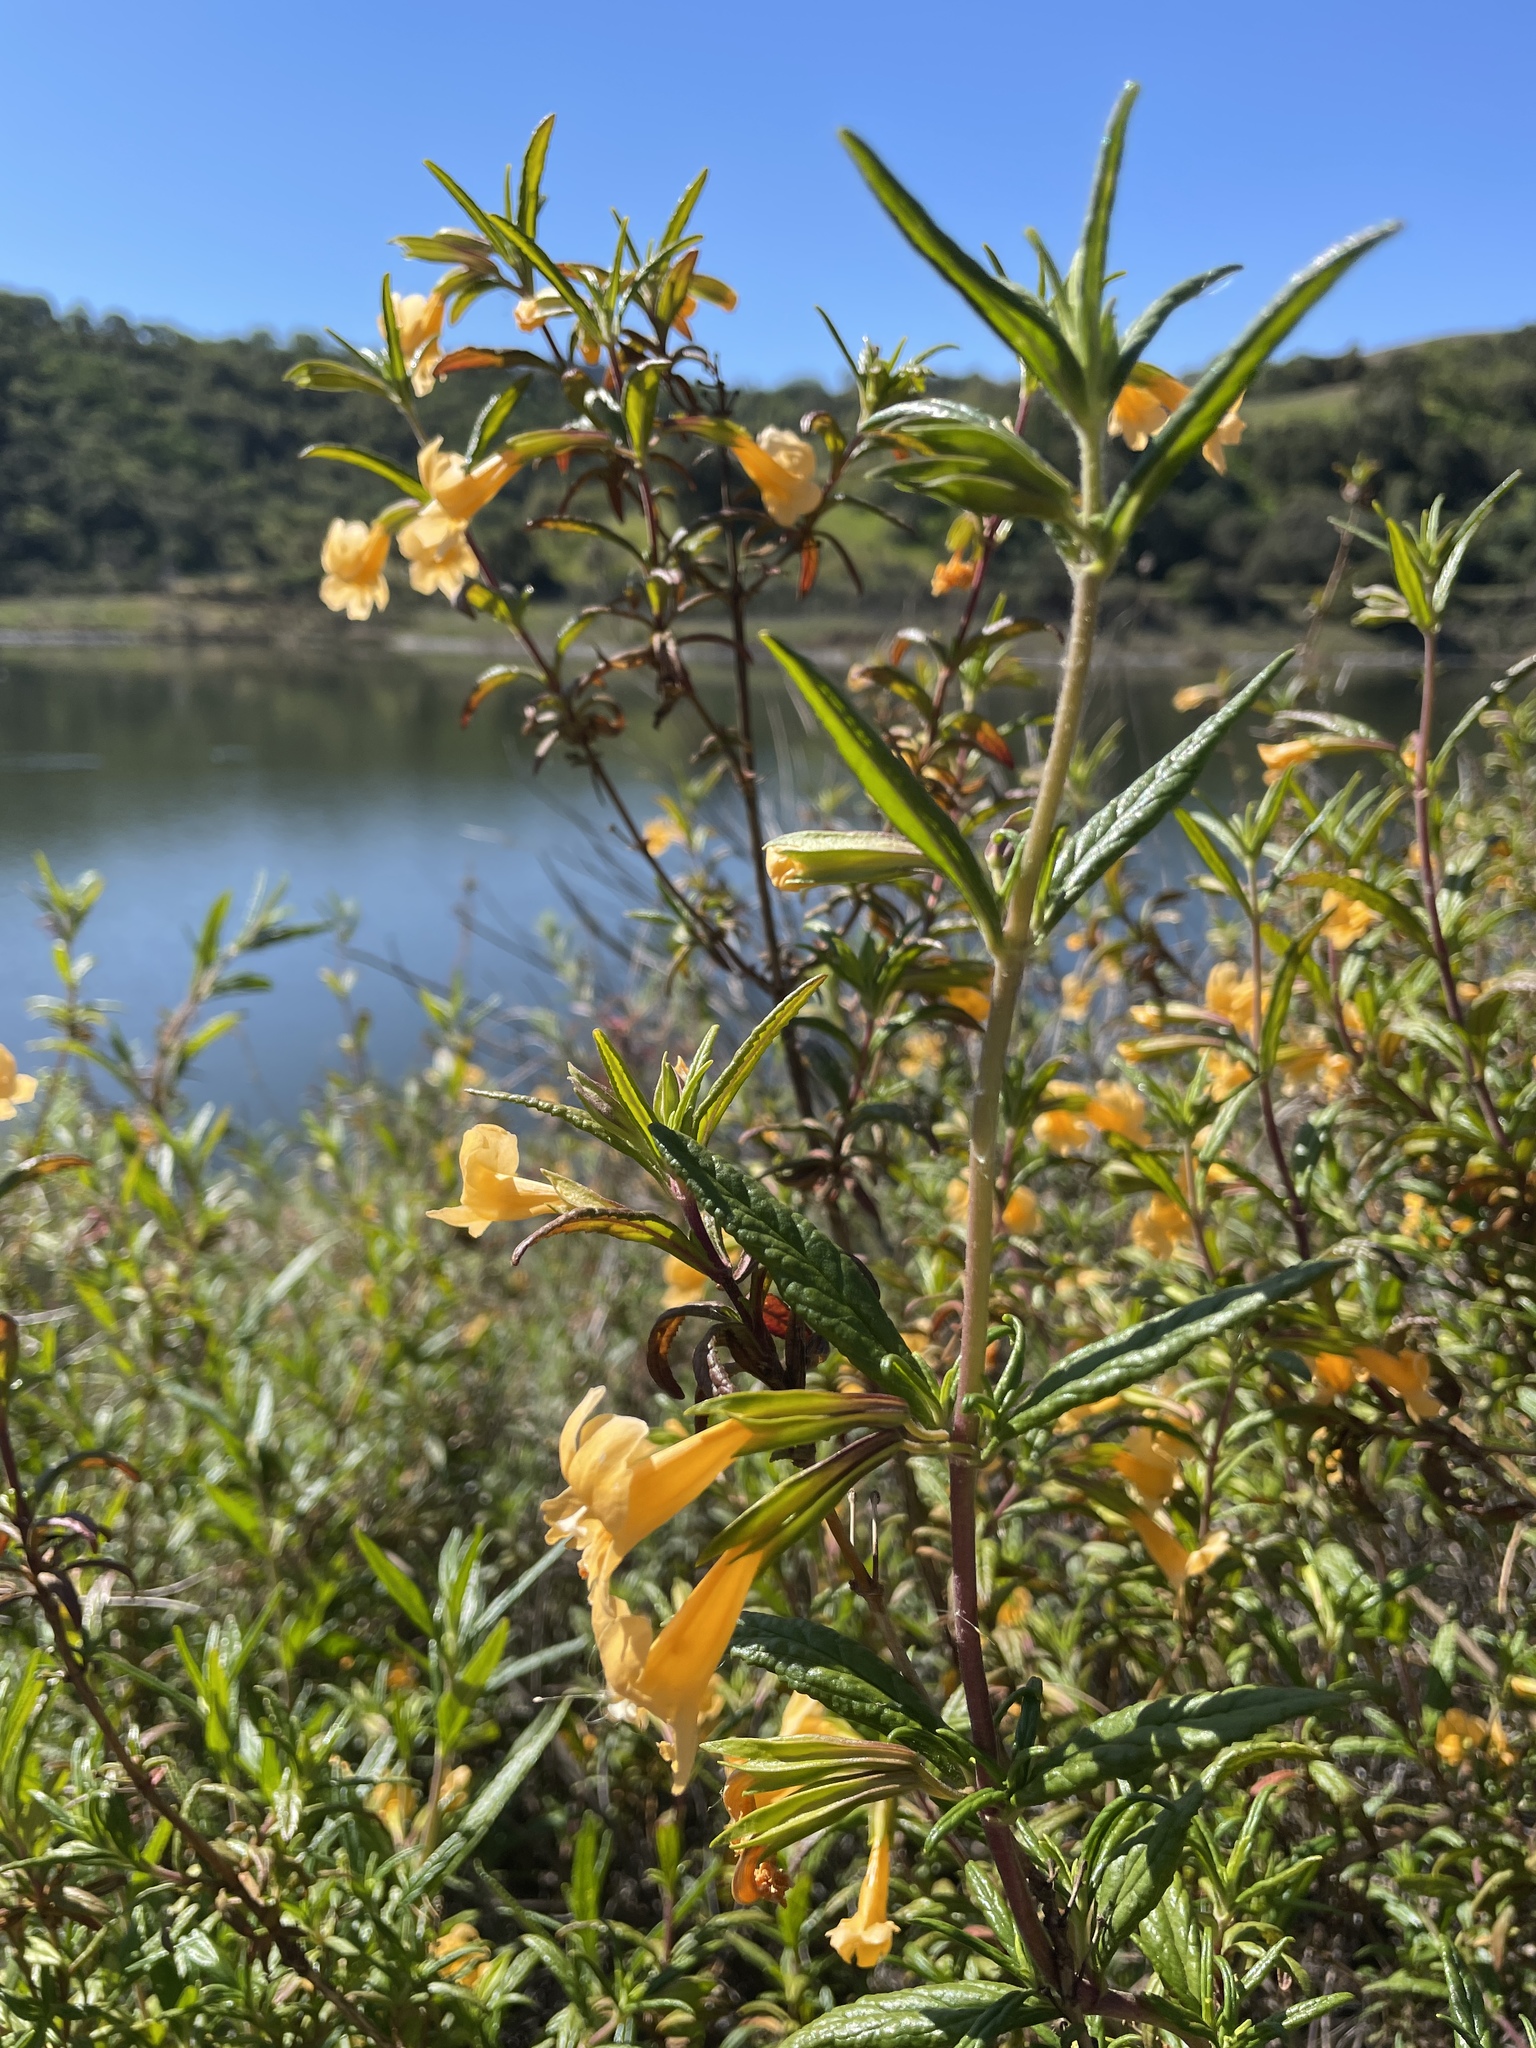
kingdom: Plantae
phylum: Tracheophyta
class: Magnoliopsida
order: Lamiales
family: Phrymaceae
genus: Diplacus
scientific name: Diplacus aurantiacus
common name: Bush monkey-flower
